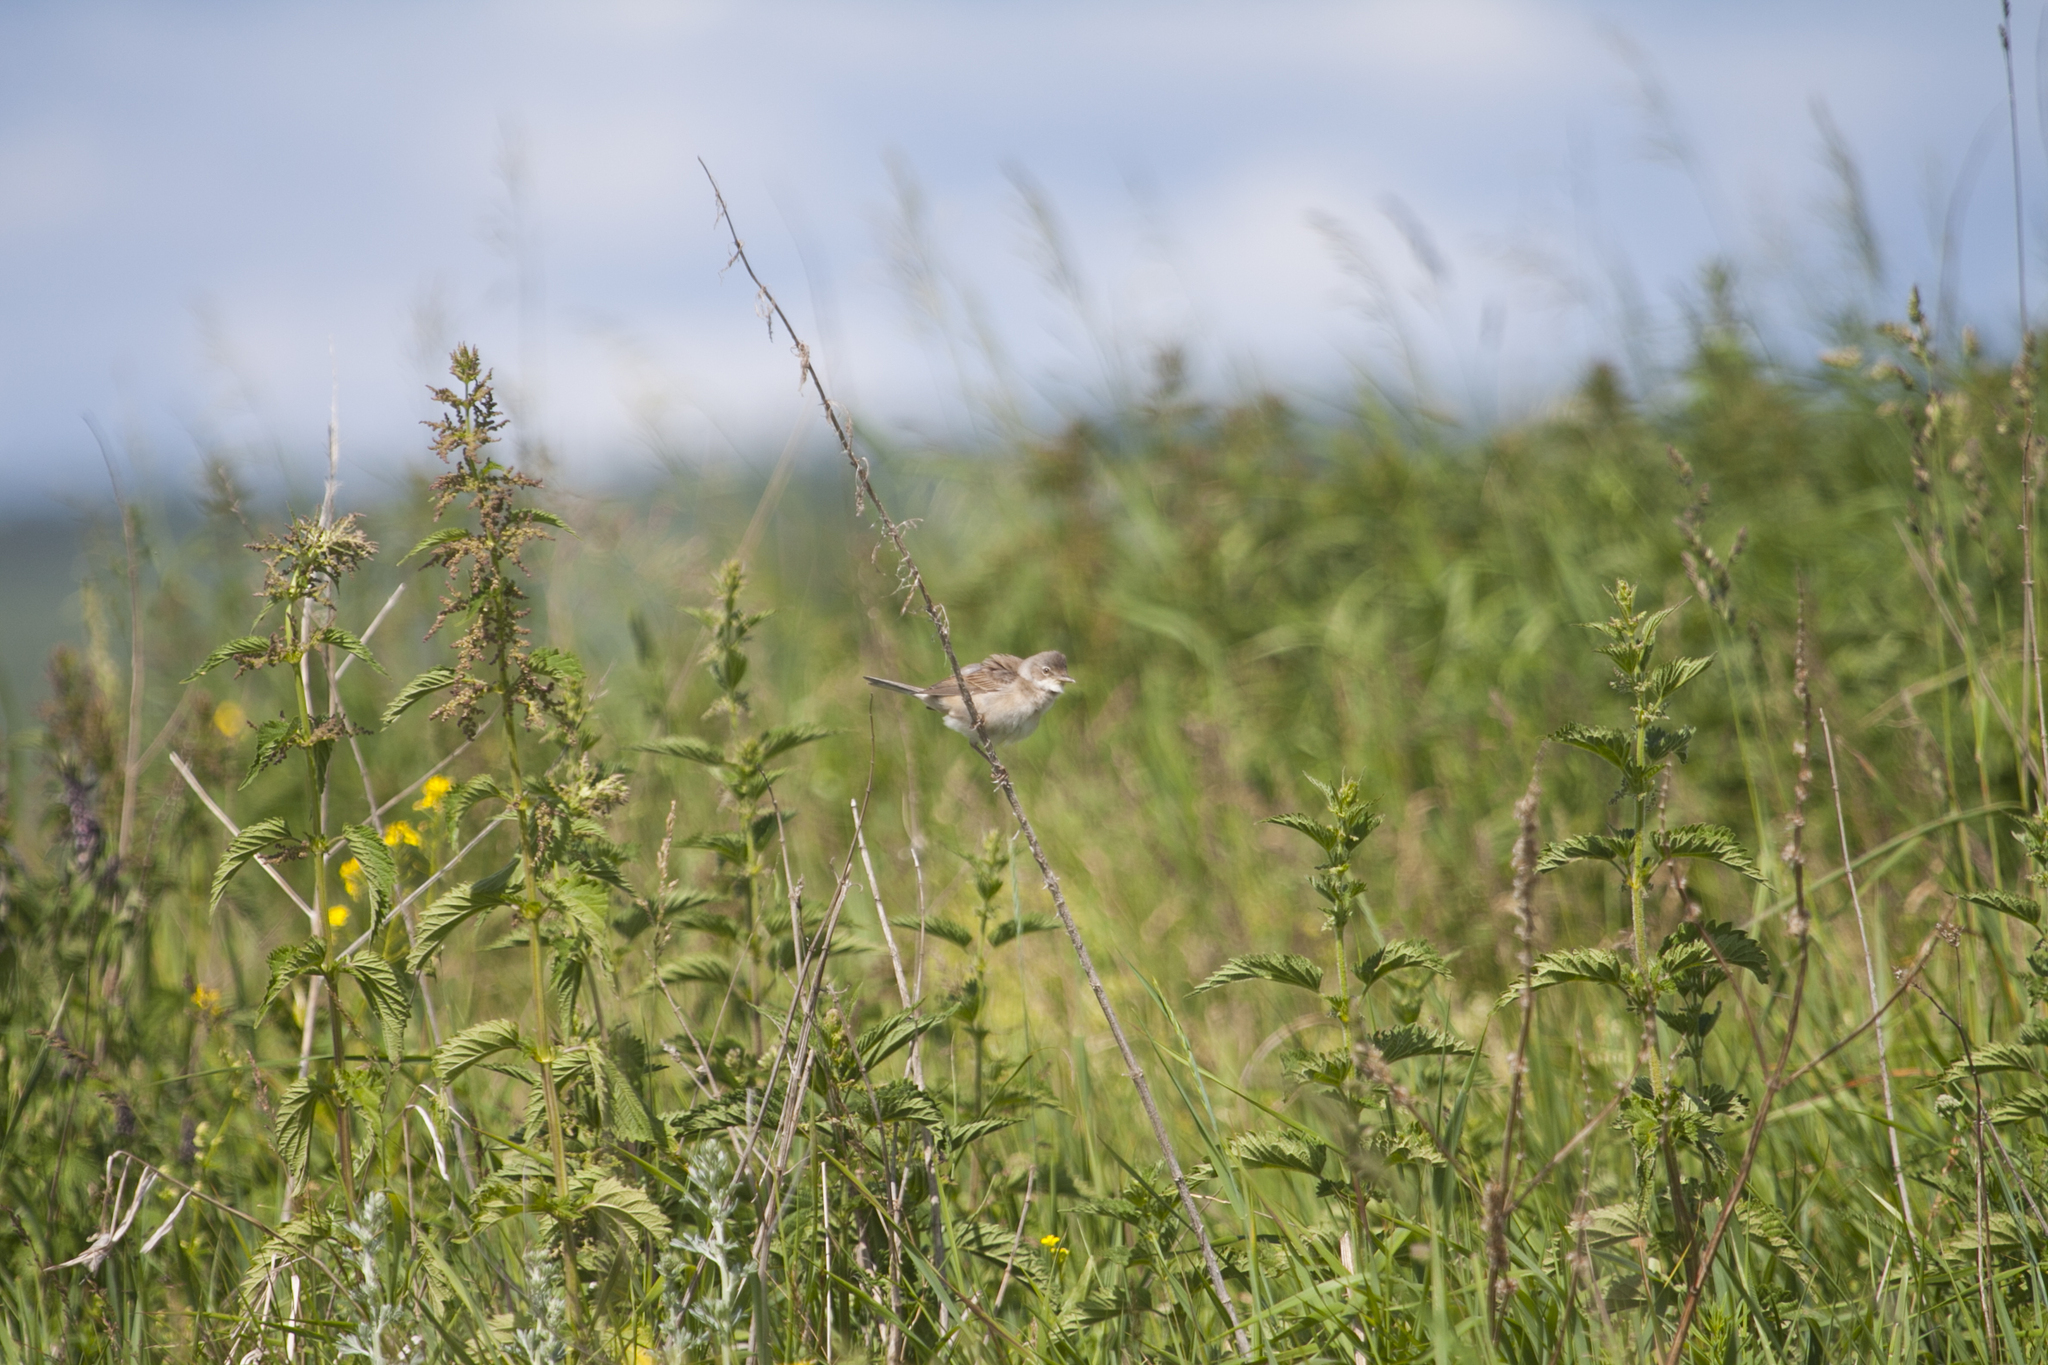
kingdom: Animalia
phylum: Chordata
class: Aves
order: Passeriformes
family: Sylviidae
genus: Sylvia
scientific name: Sylvia communis
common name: Common whitethroat
